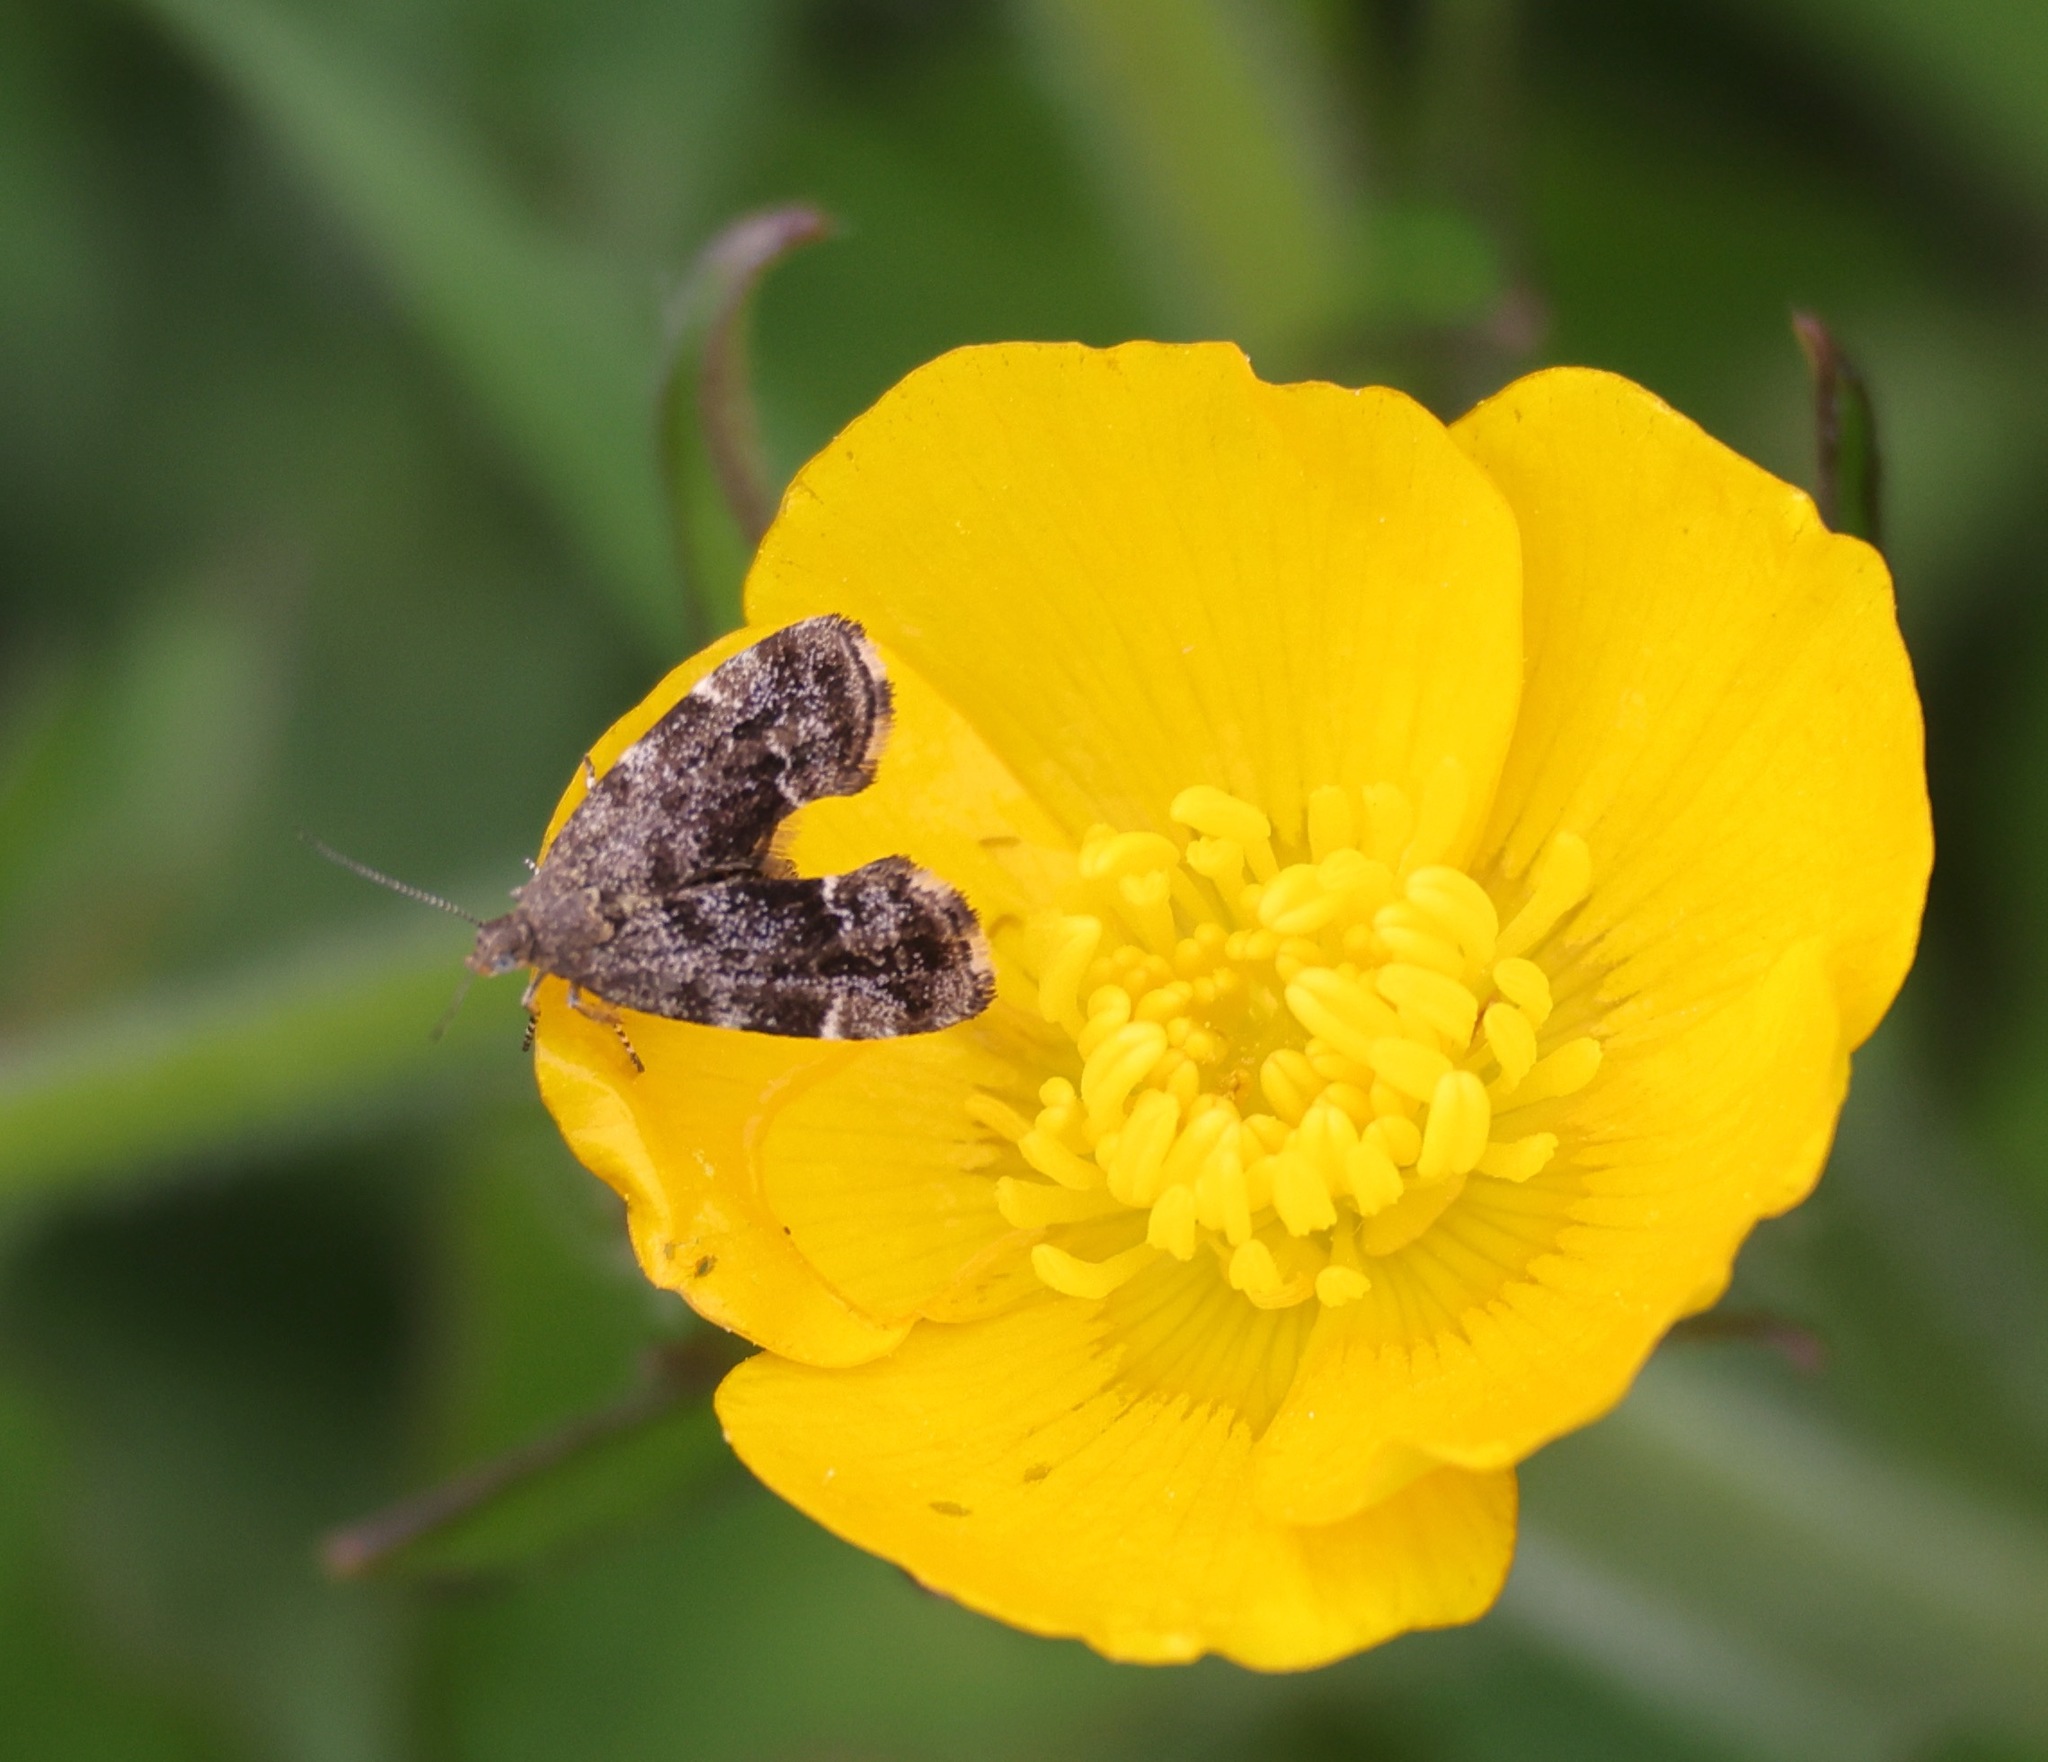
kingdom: Animalia
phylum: Arthropoda
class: Insecta
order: Lepidoptera
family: Choreutidae
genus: Anthophila
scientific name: Anthophila fabriciana
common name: Nettle-tap
